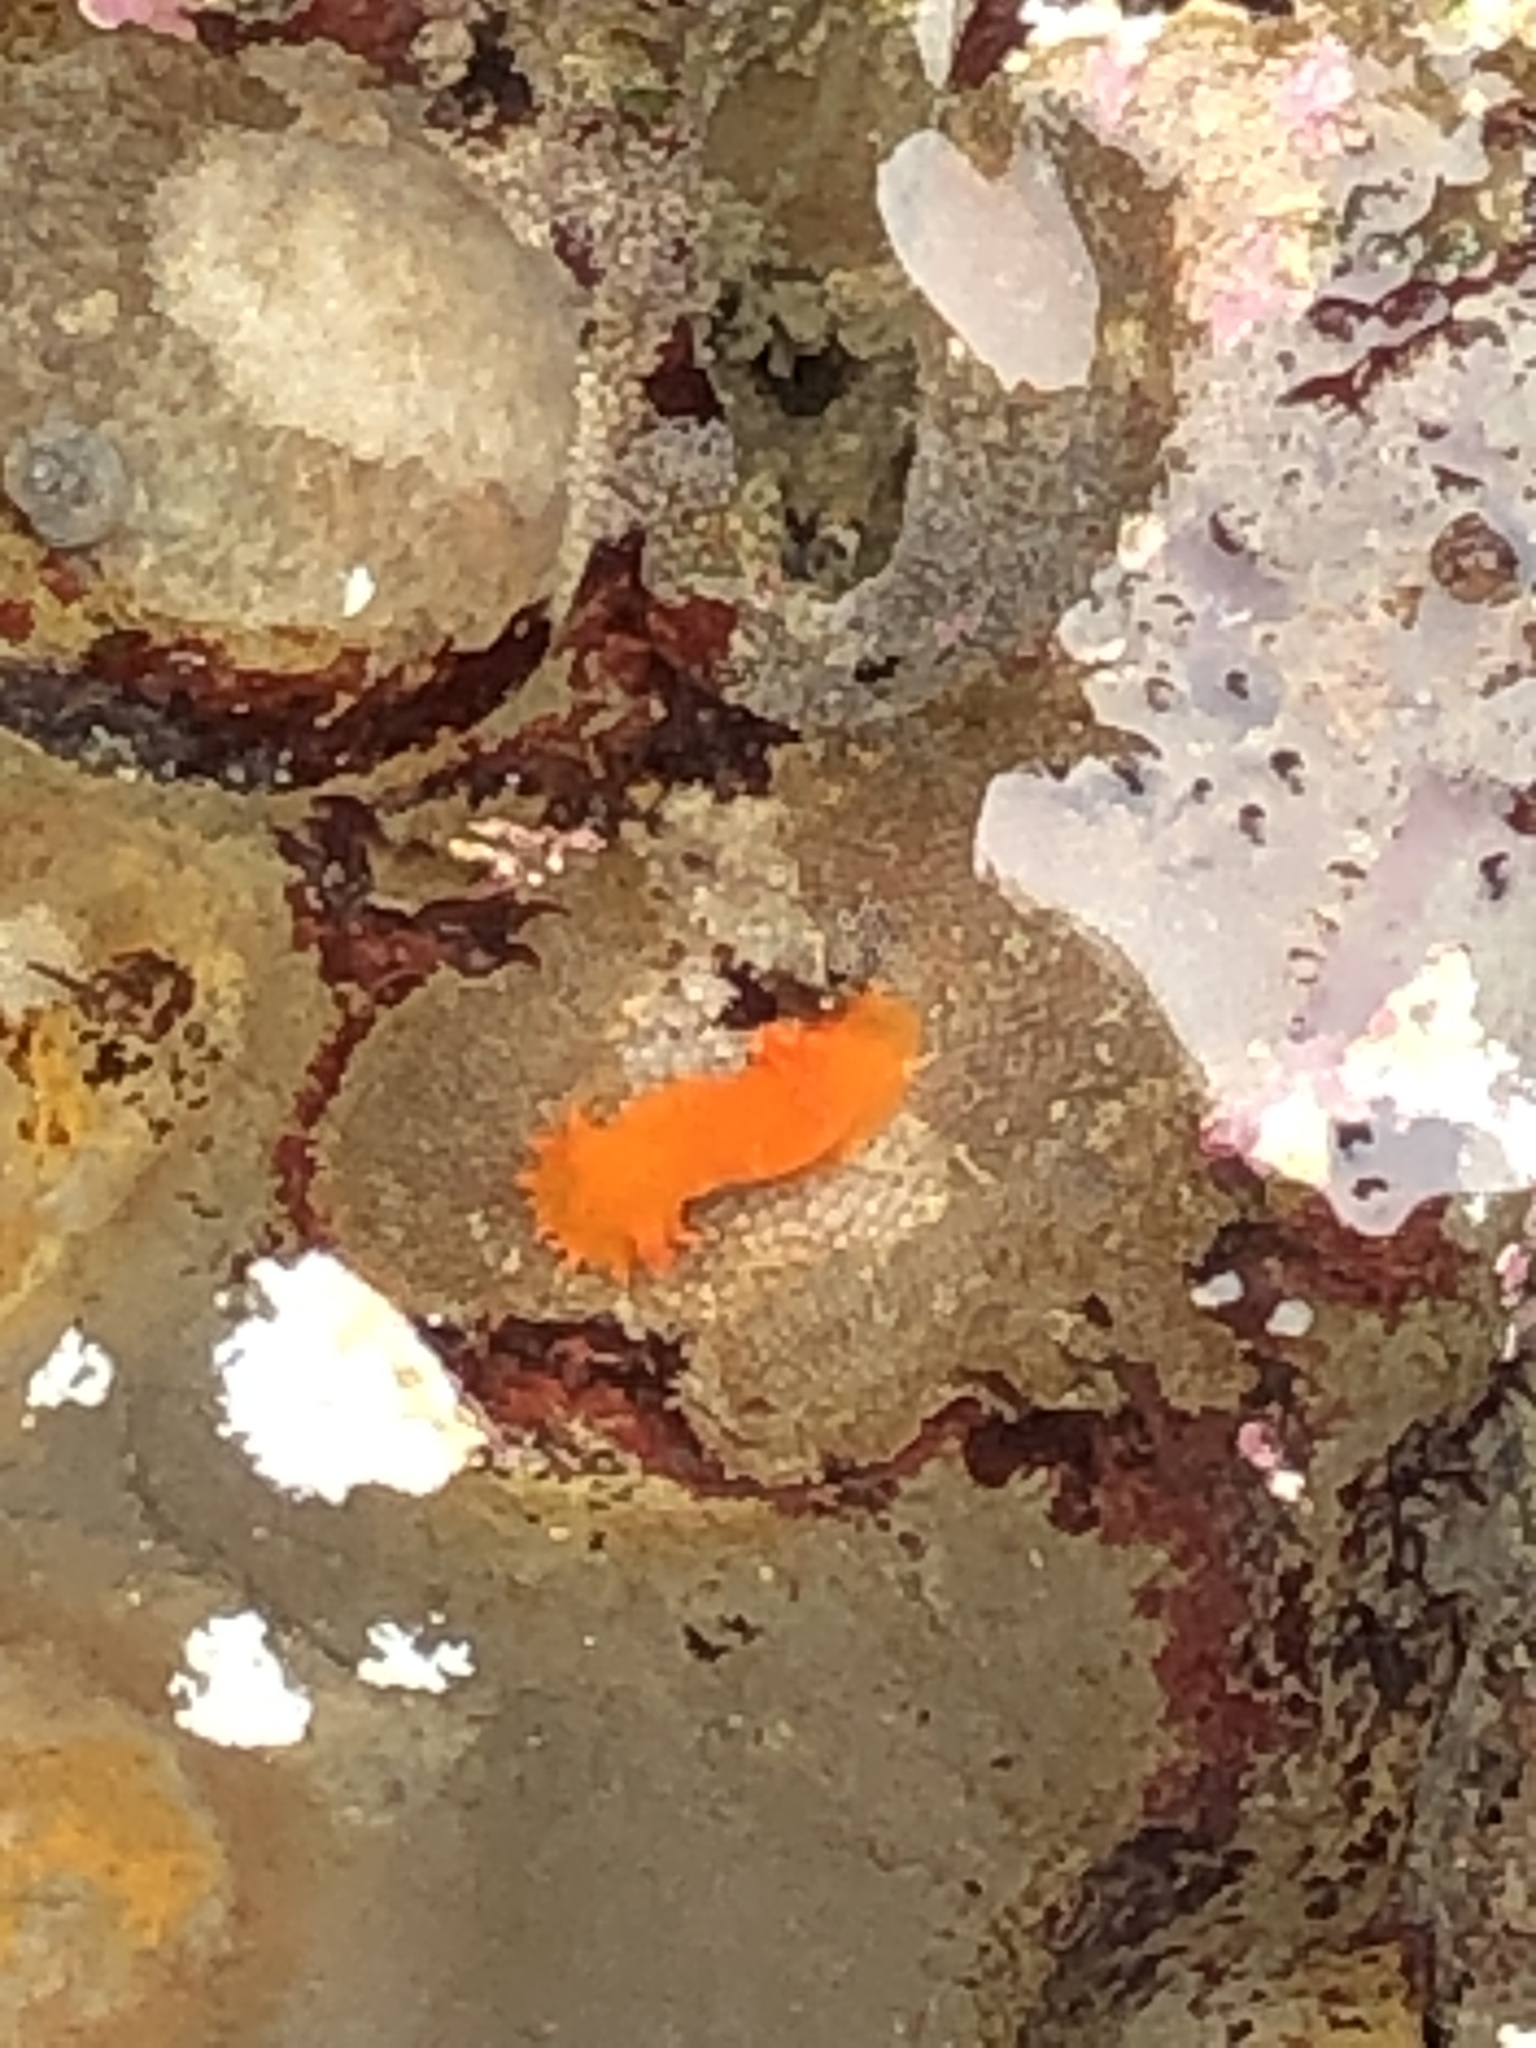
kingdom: Animalia
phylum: Mollusca
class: Gastropoda
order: Nudibranchia
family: Polyceridae
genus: Triopha
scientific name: Triopha maculata
